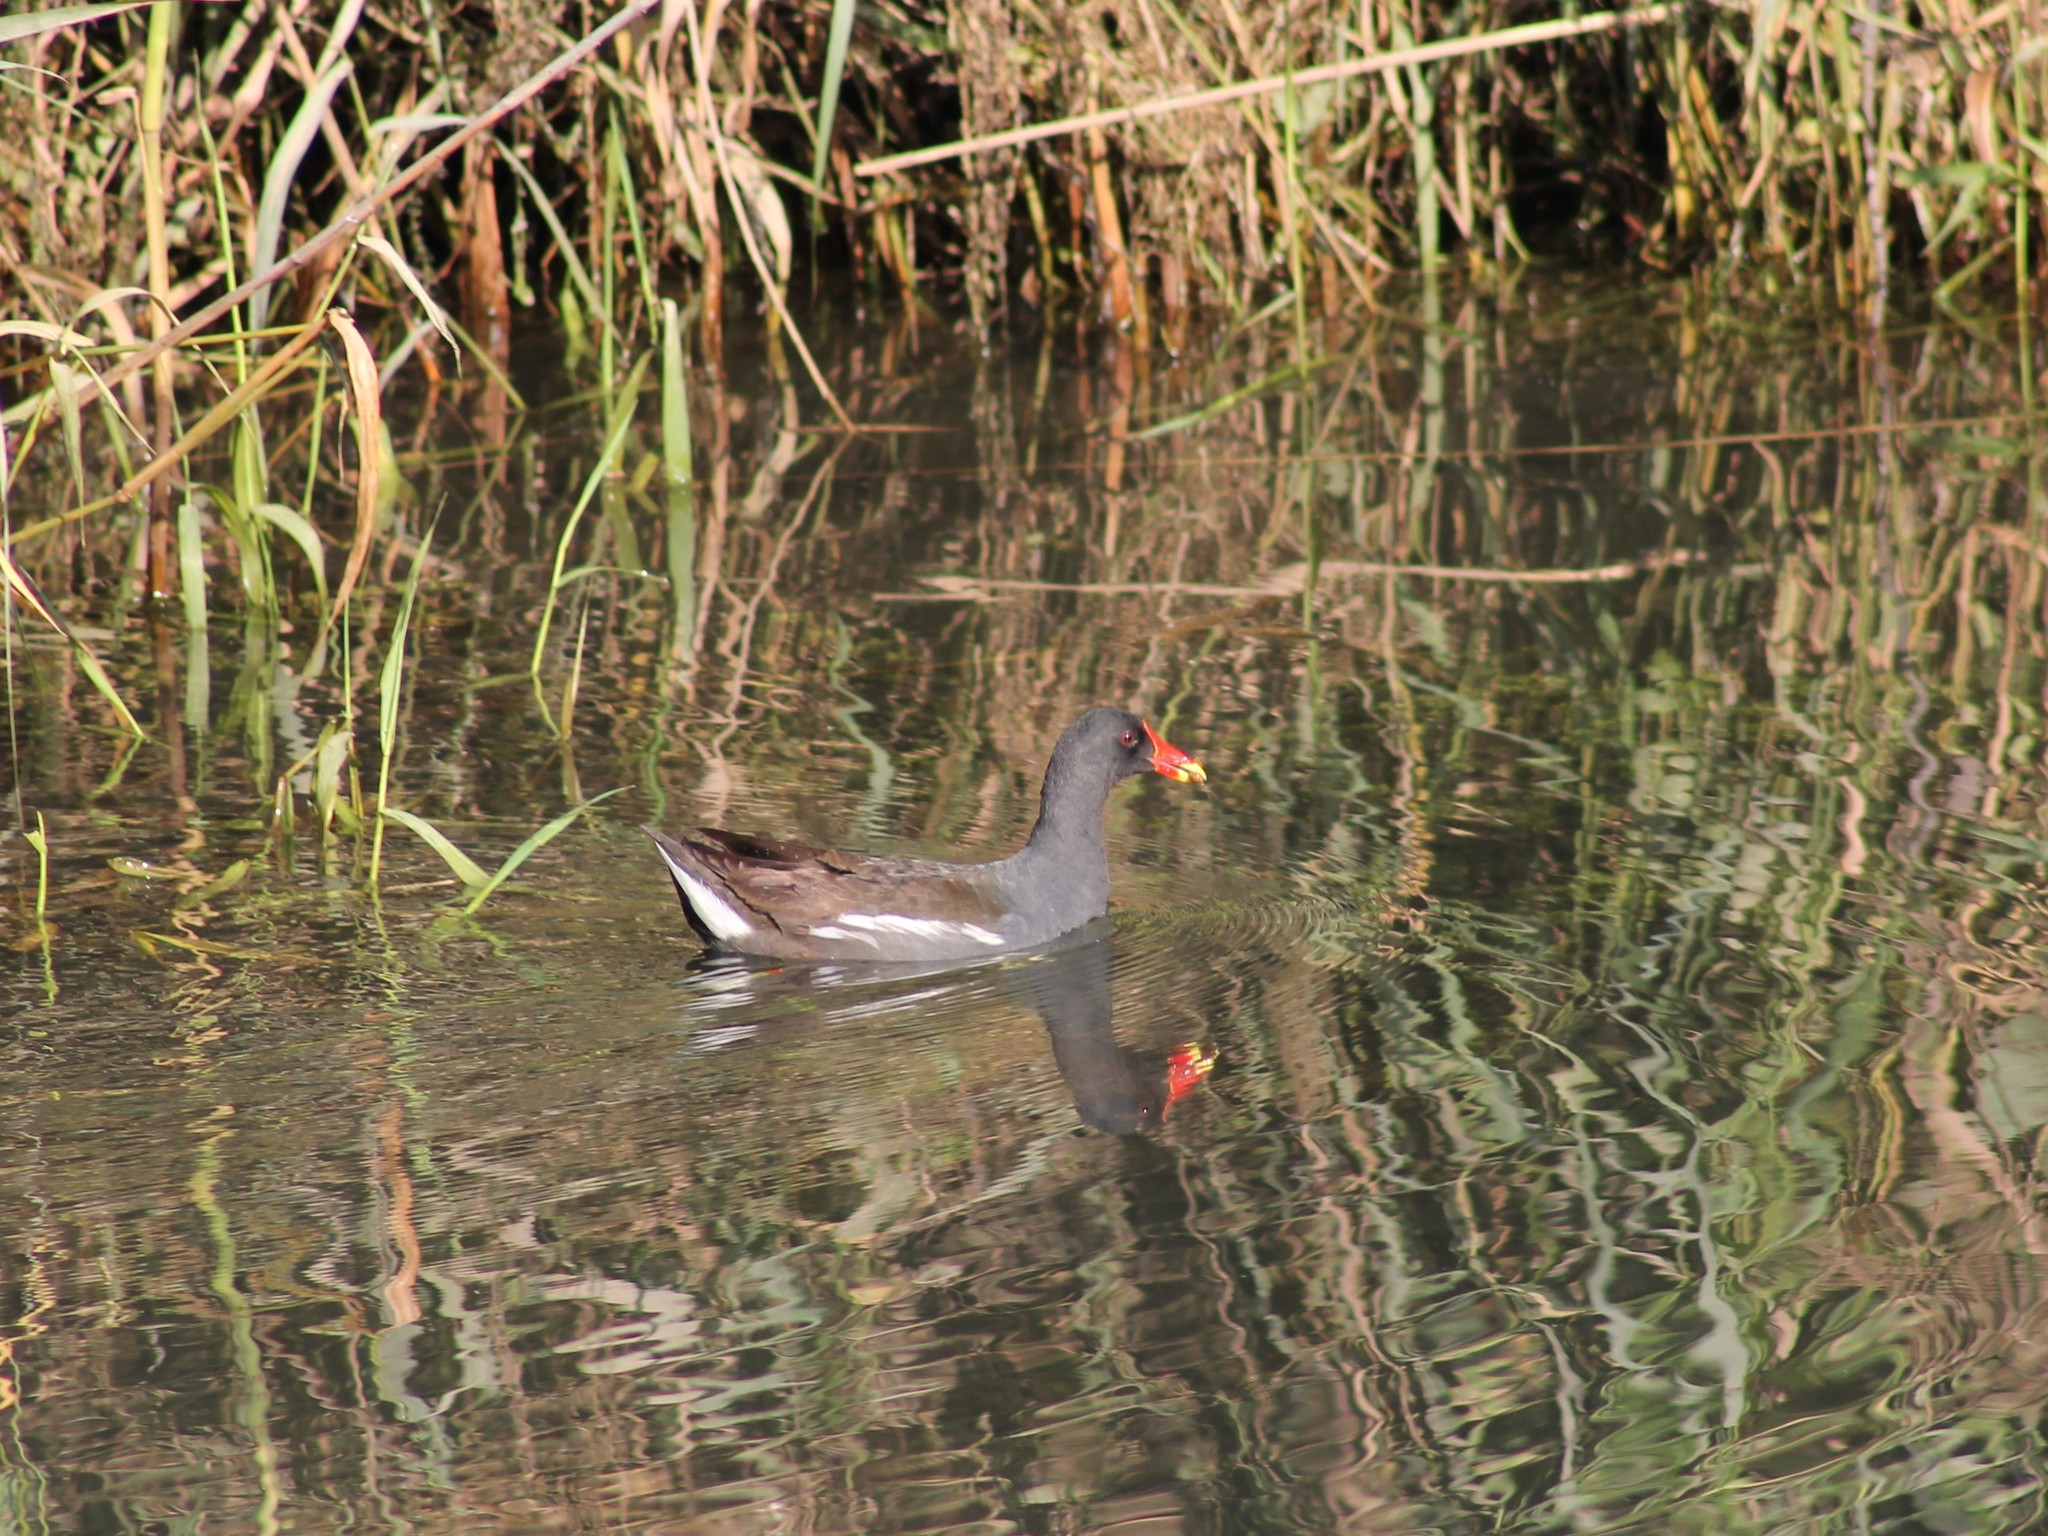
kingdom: Animalia
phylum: Chordata
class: Aves
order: Gruiformes
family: Rallidae
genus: Gallinula
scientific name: Gallinula chloropus
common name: Common moorhen
